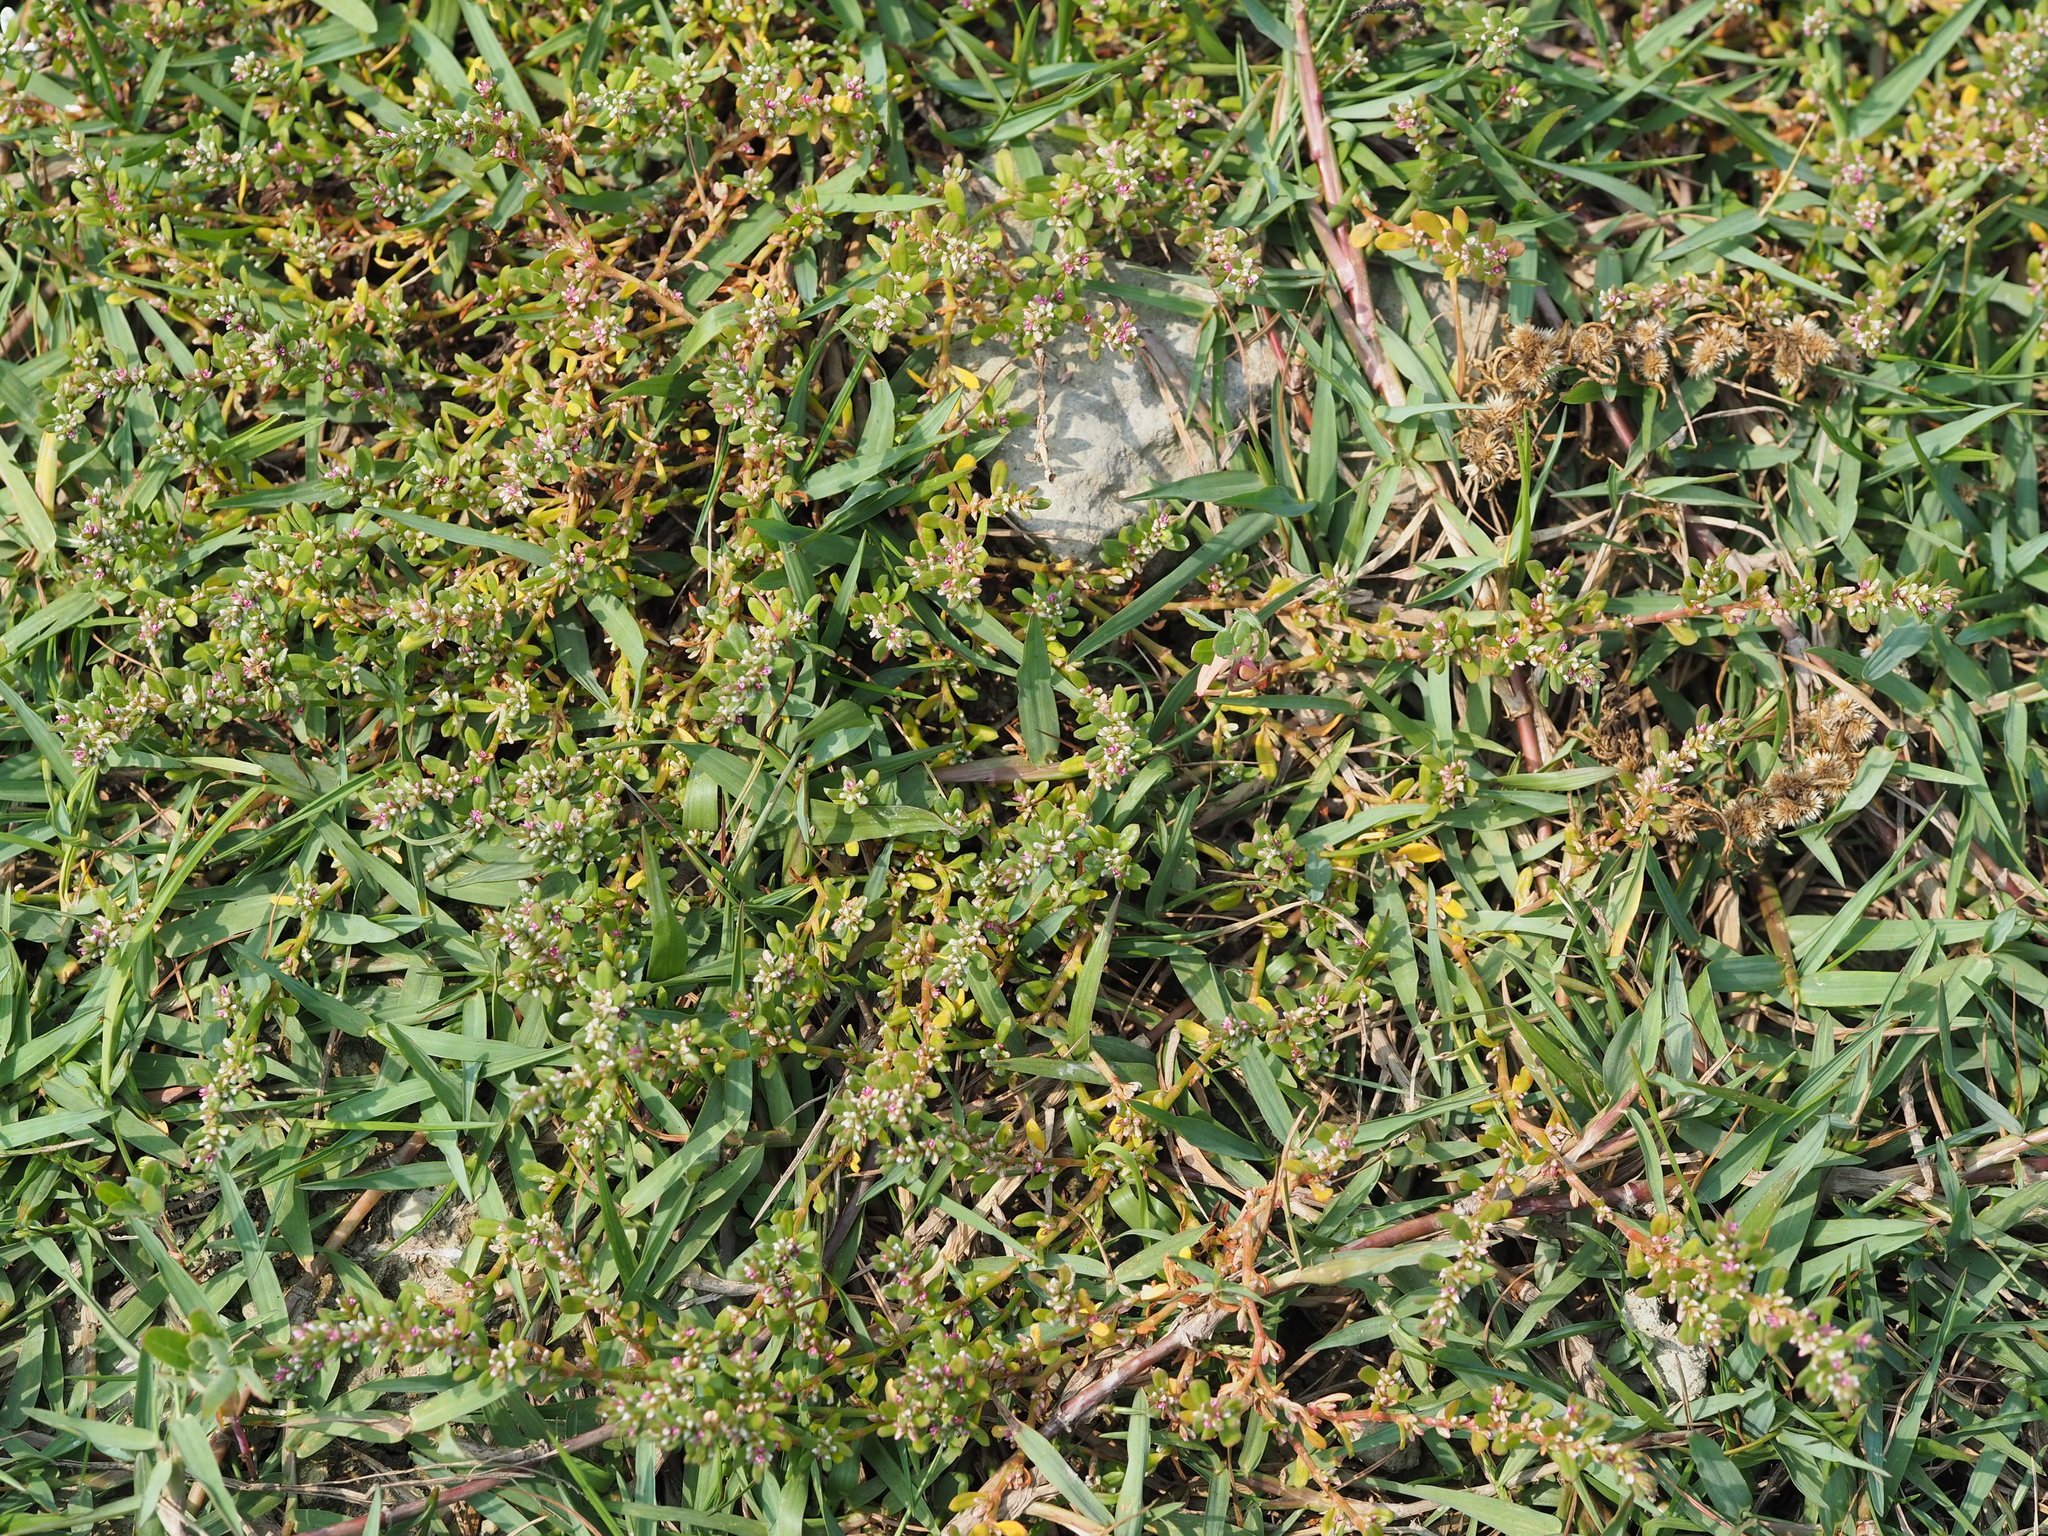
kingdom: Plantae
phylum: Tracheophyta
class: Magnoliopsida
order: Caryophyllales
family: Polygonaceae
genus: Polygonum
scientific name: Polygonum plebeium
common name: Common knotweed
